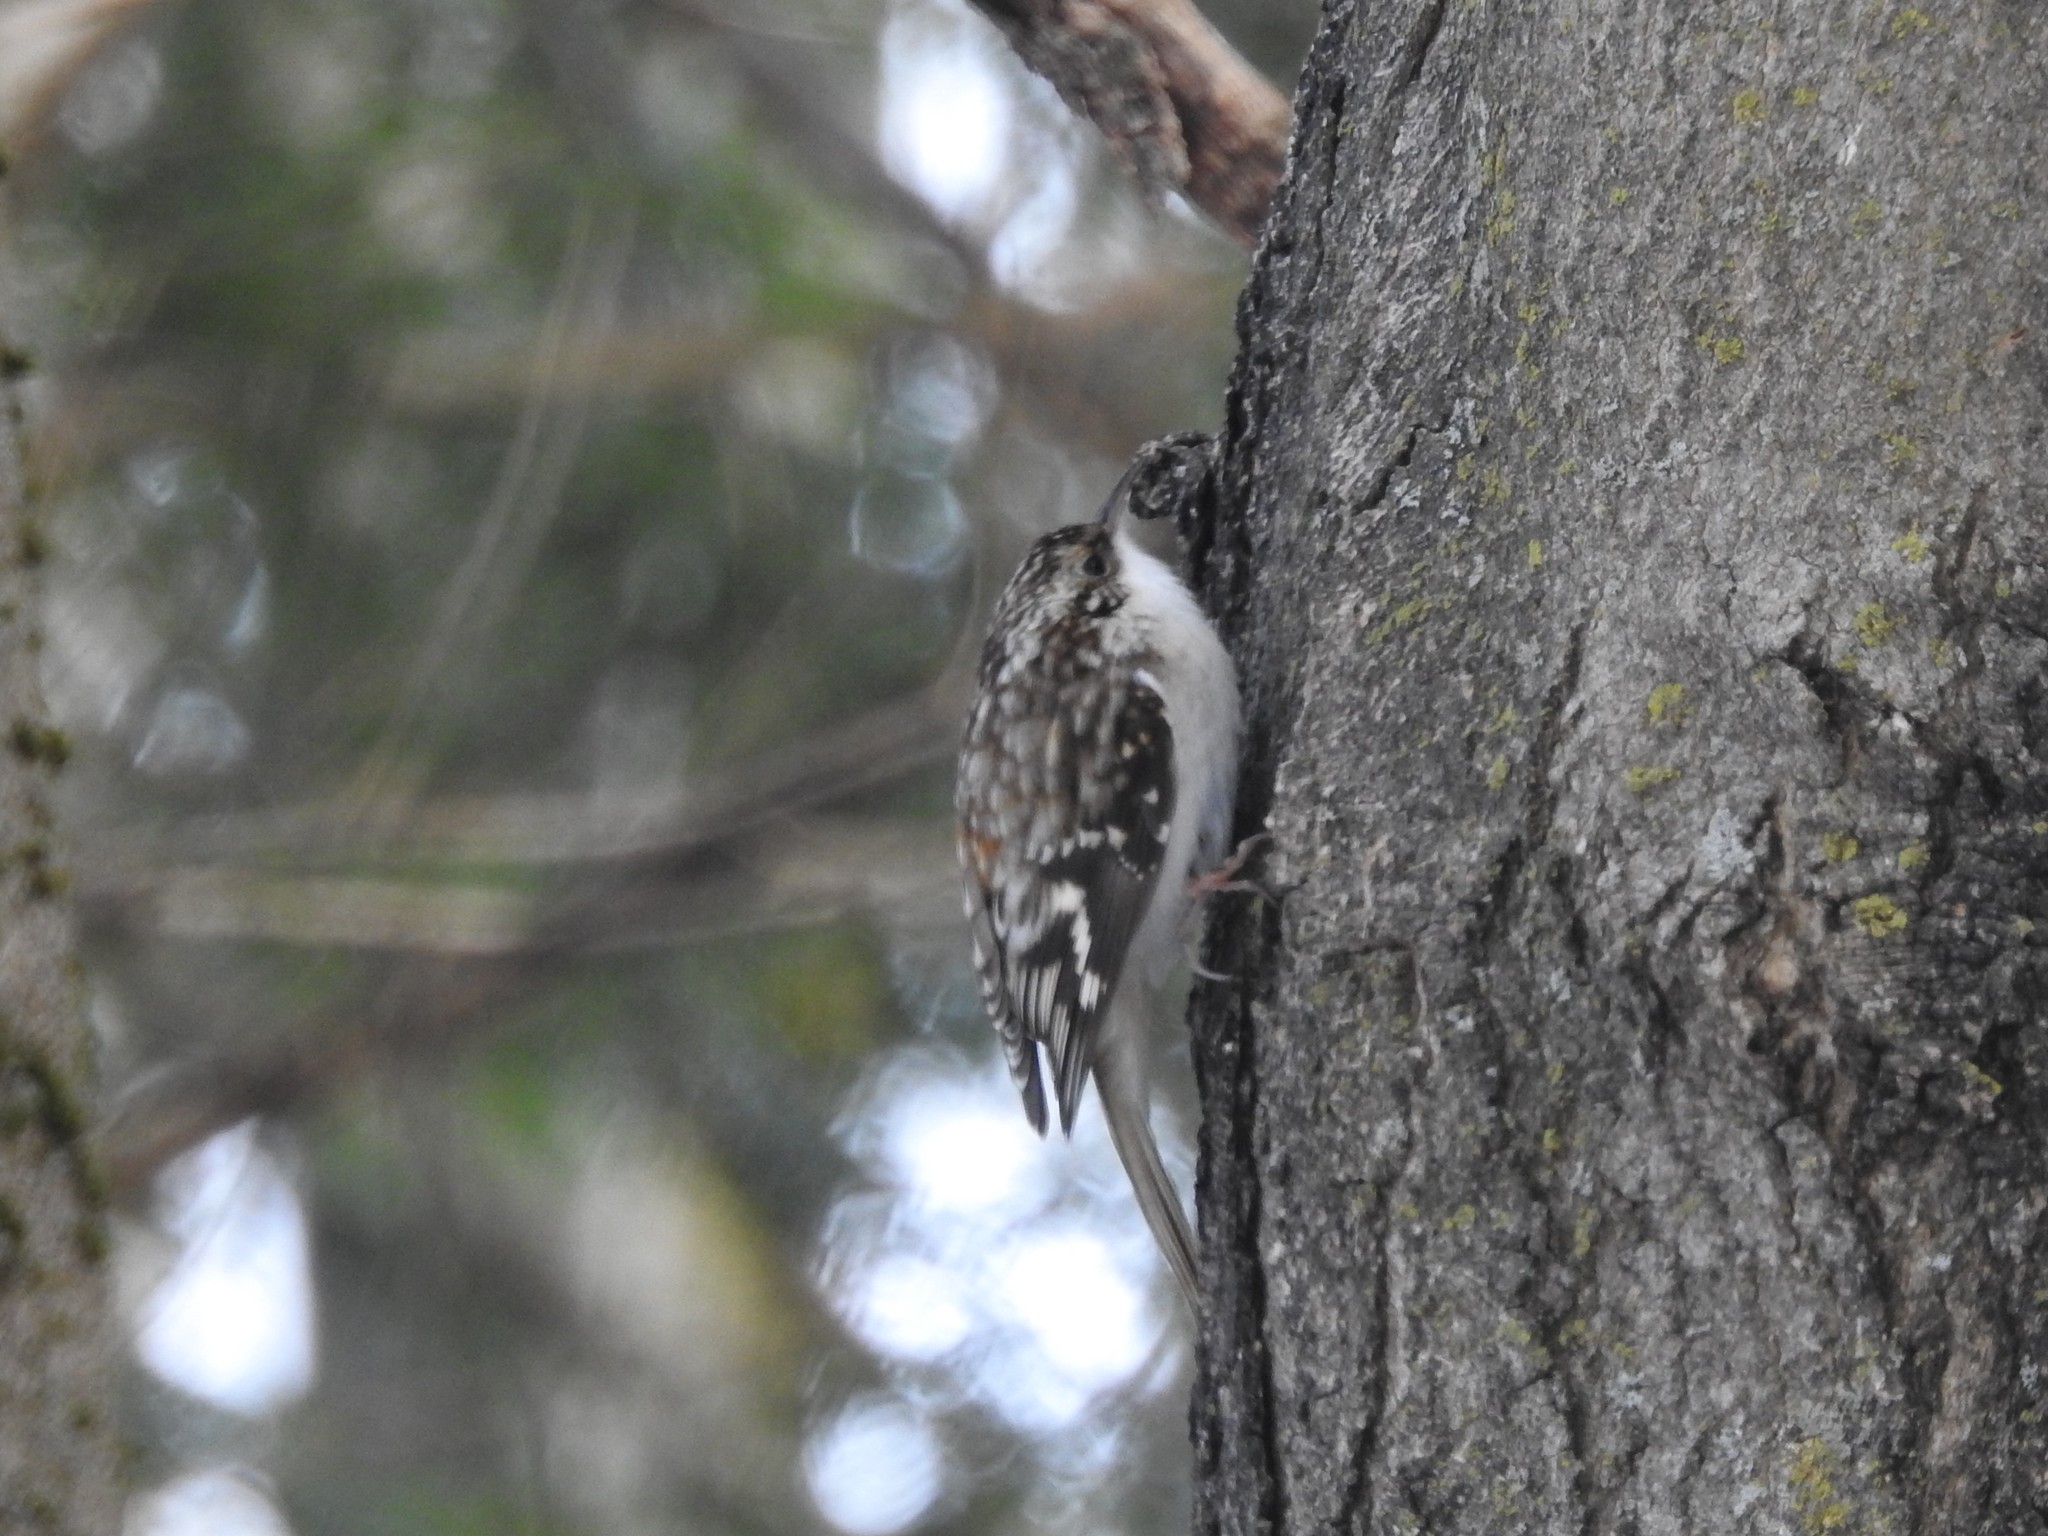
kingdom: Animalia
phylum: Chordata
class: Aves
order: Passeriformes
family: Certhiidae
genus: Certhia
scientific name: Certhia americana
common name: Brown creeper
